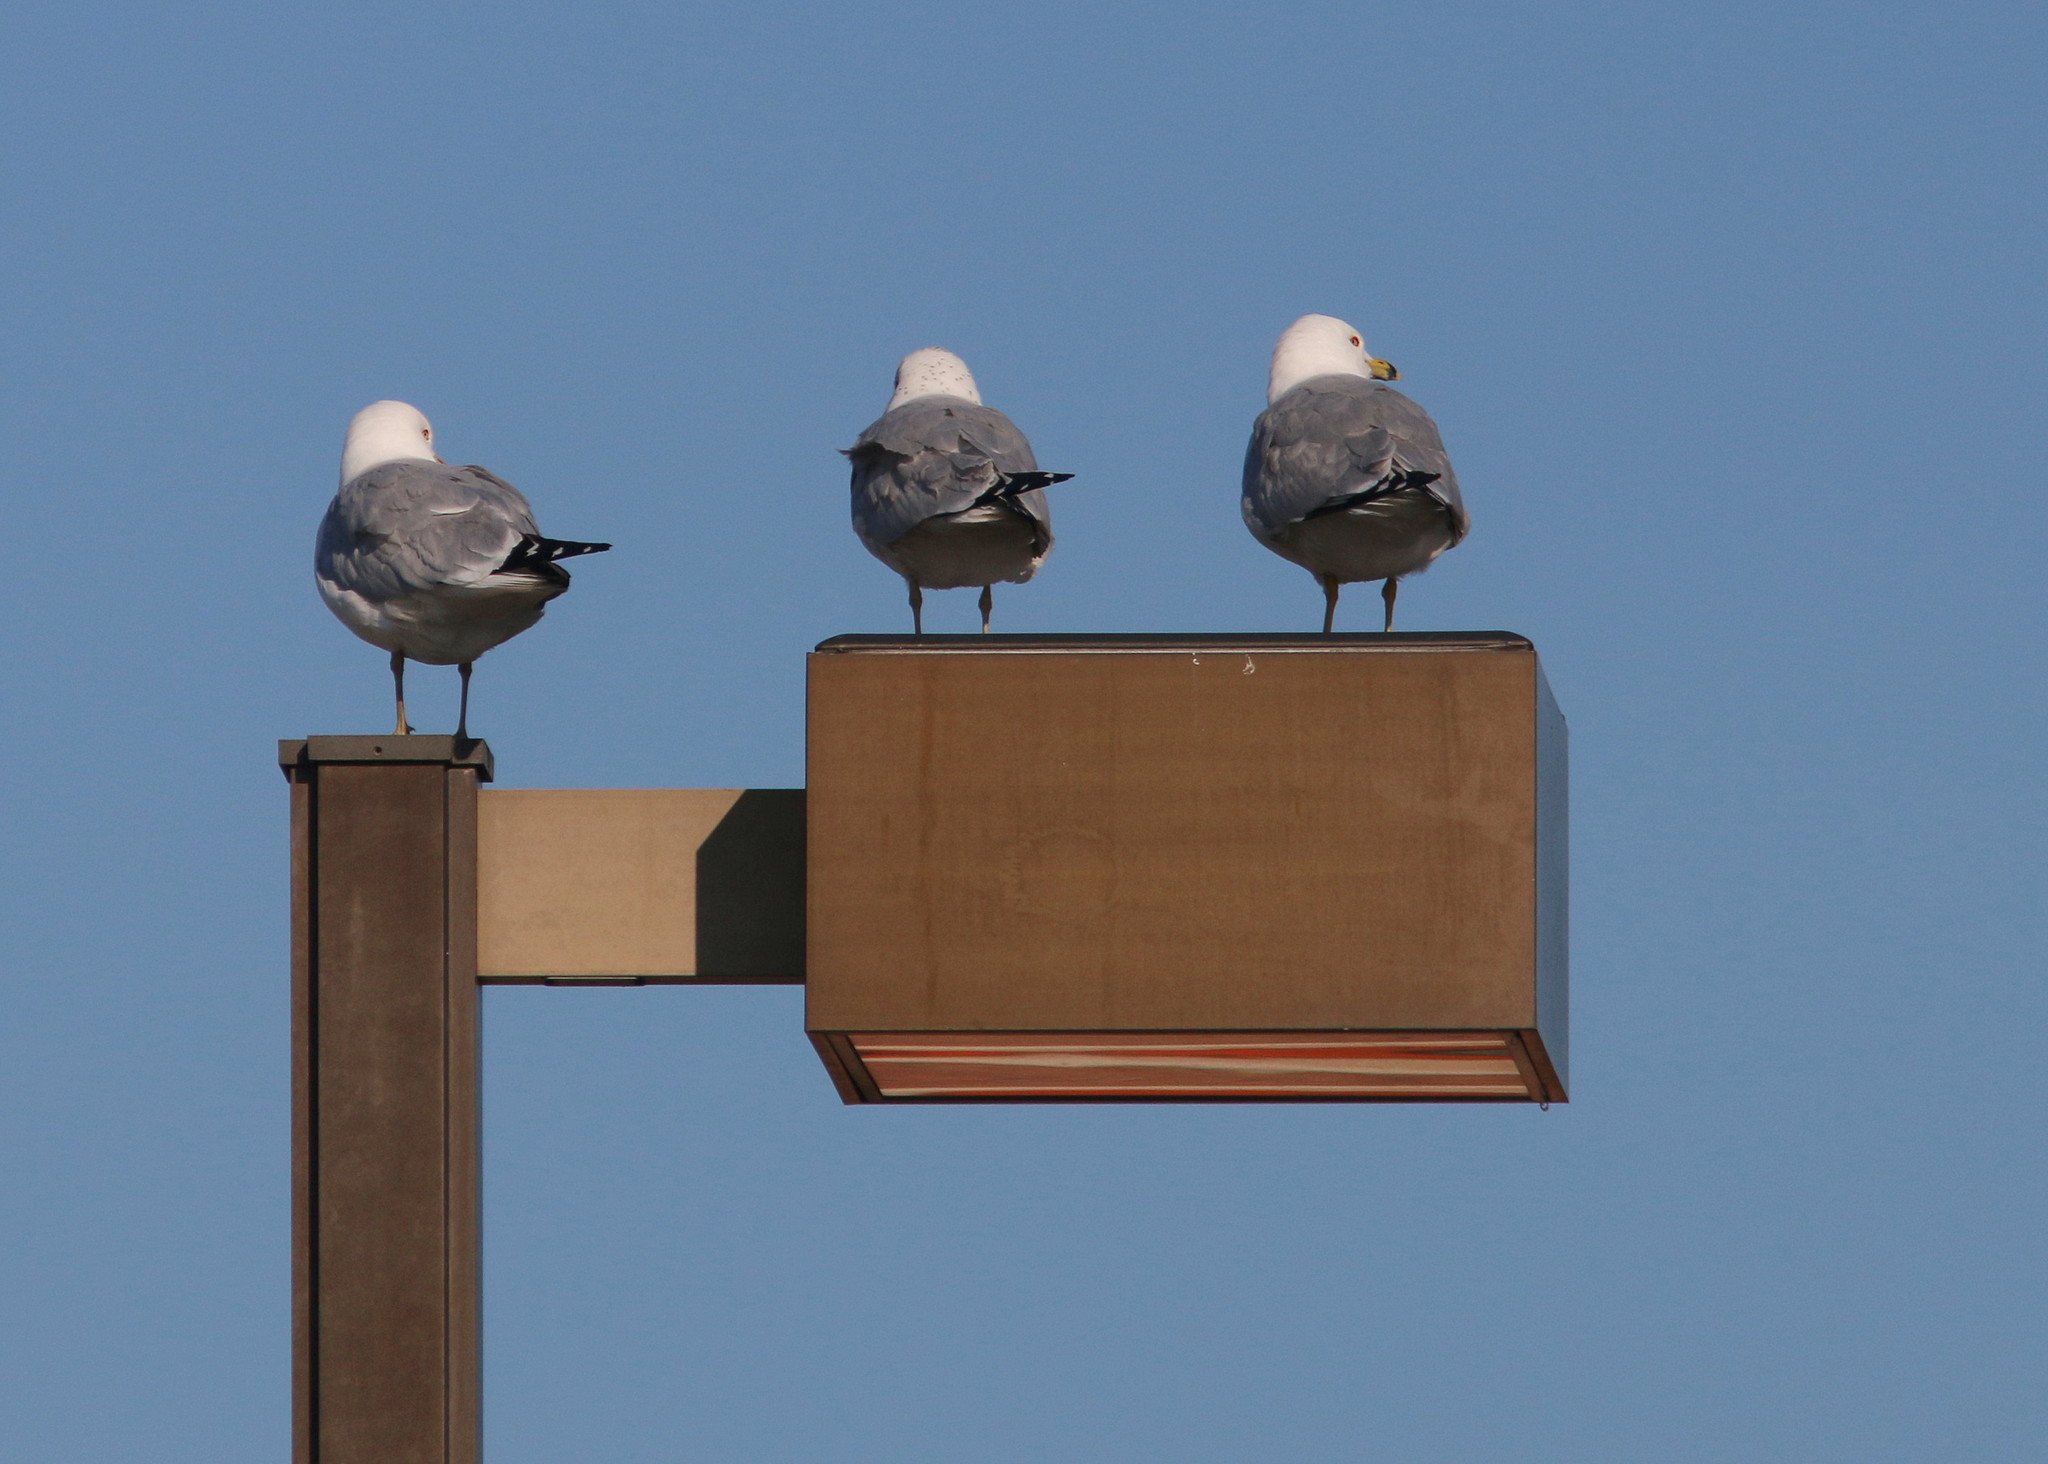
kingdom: Animalia
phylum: Chordata
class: Aves
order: Charadriiformes
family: Laridae
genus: Larus
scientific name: Larus delawarensis
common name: Ring-billed gull
